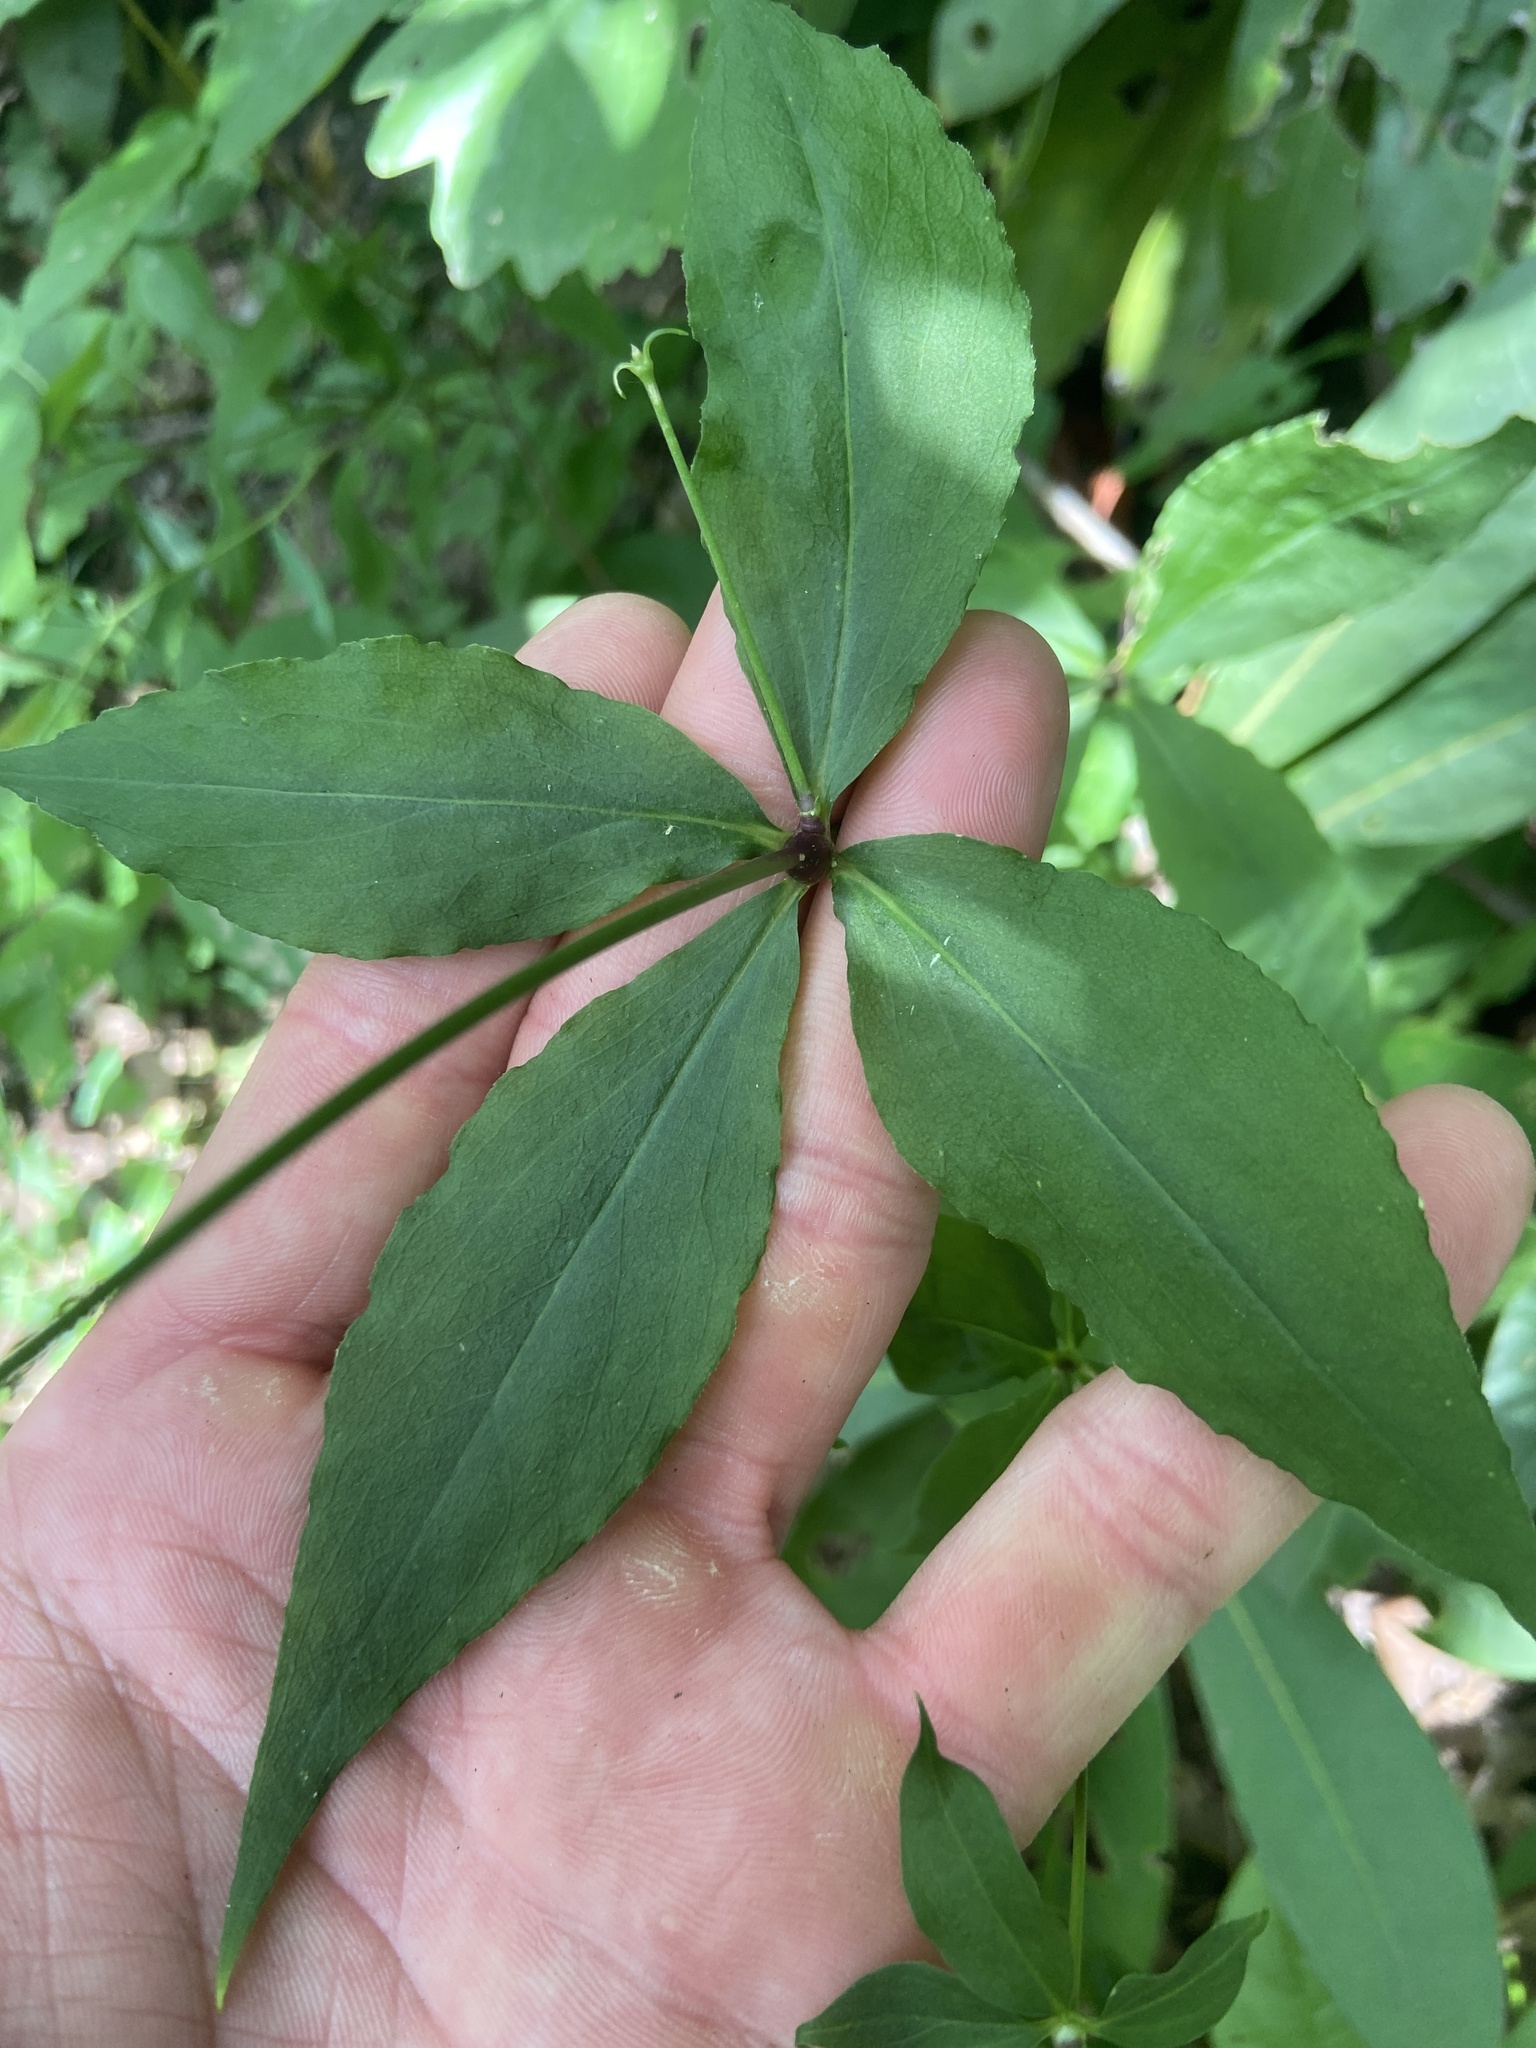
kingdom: Plantae
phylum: Tracheophyta
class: Magnoliopsida
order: Caryophyllales
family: Caryophyllaceae
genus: Silene
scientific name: Silene stellata
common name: Starry campion
